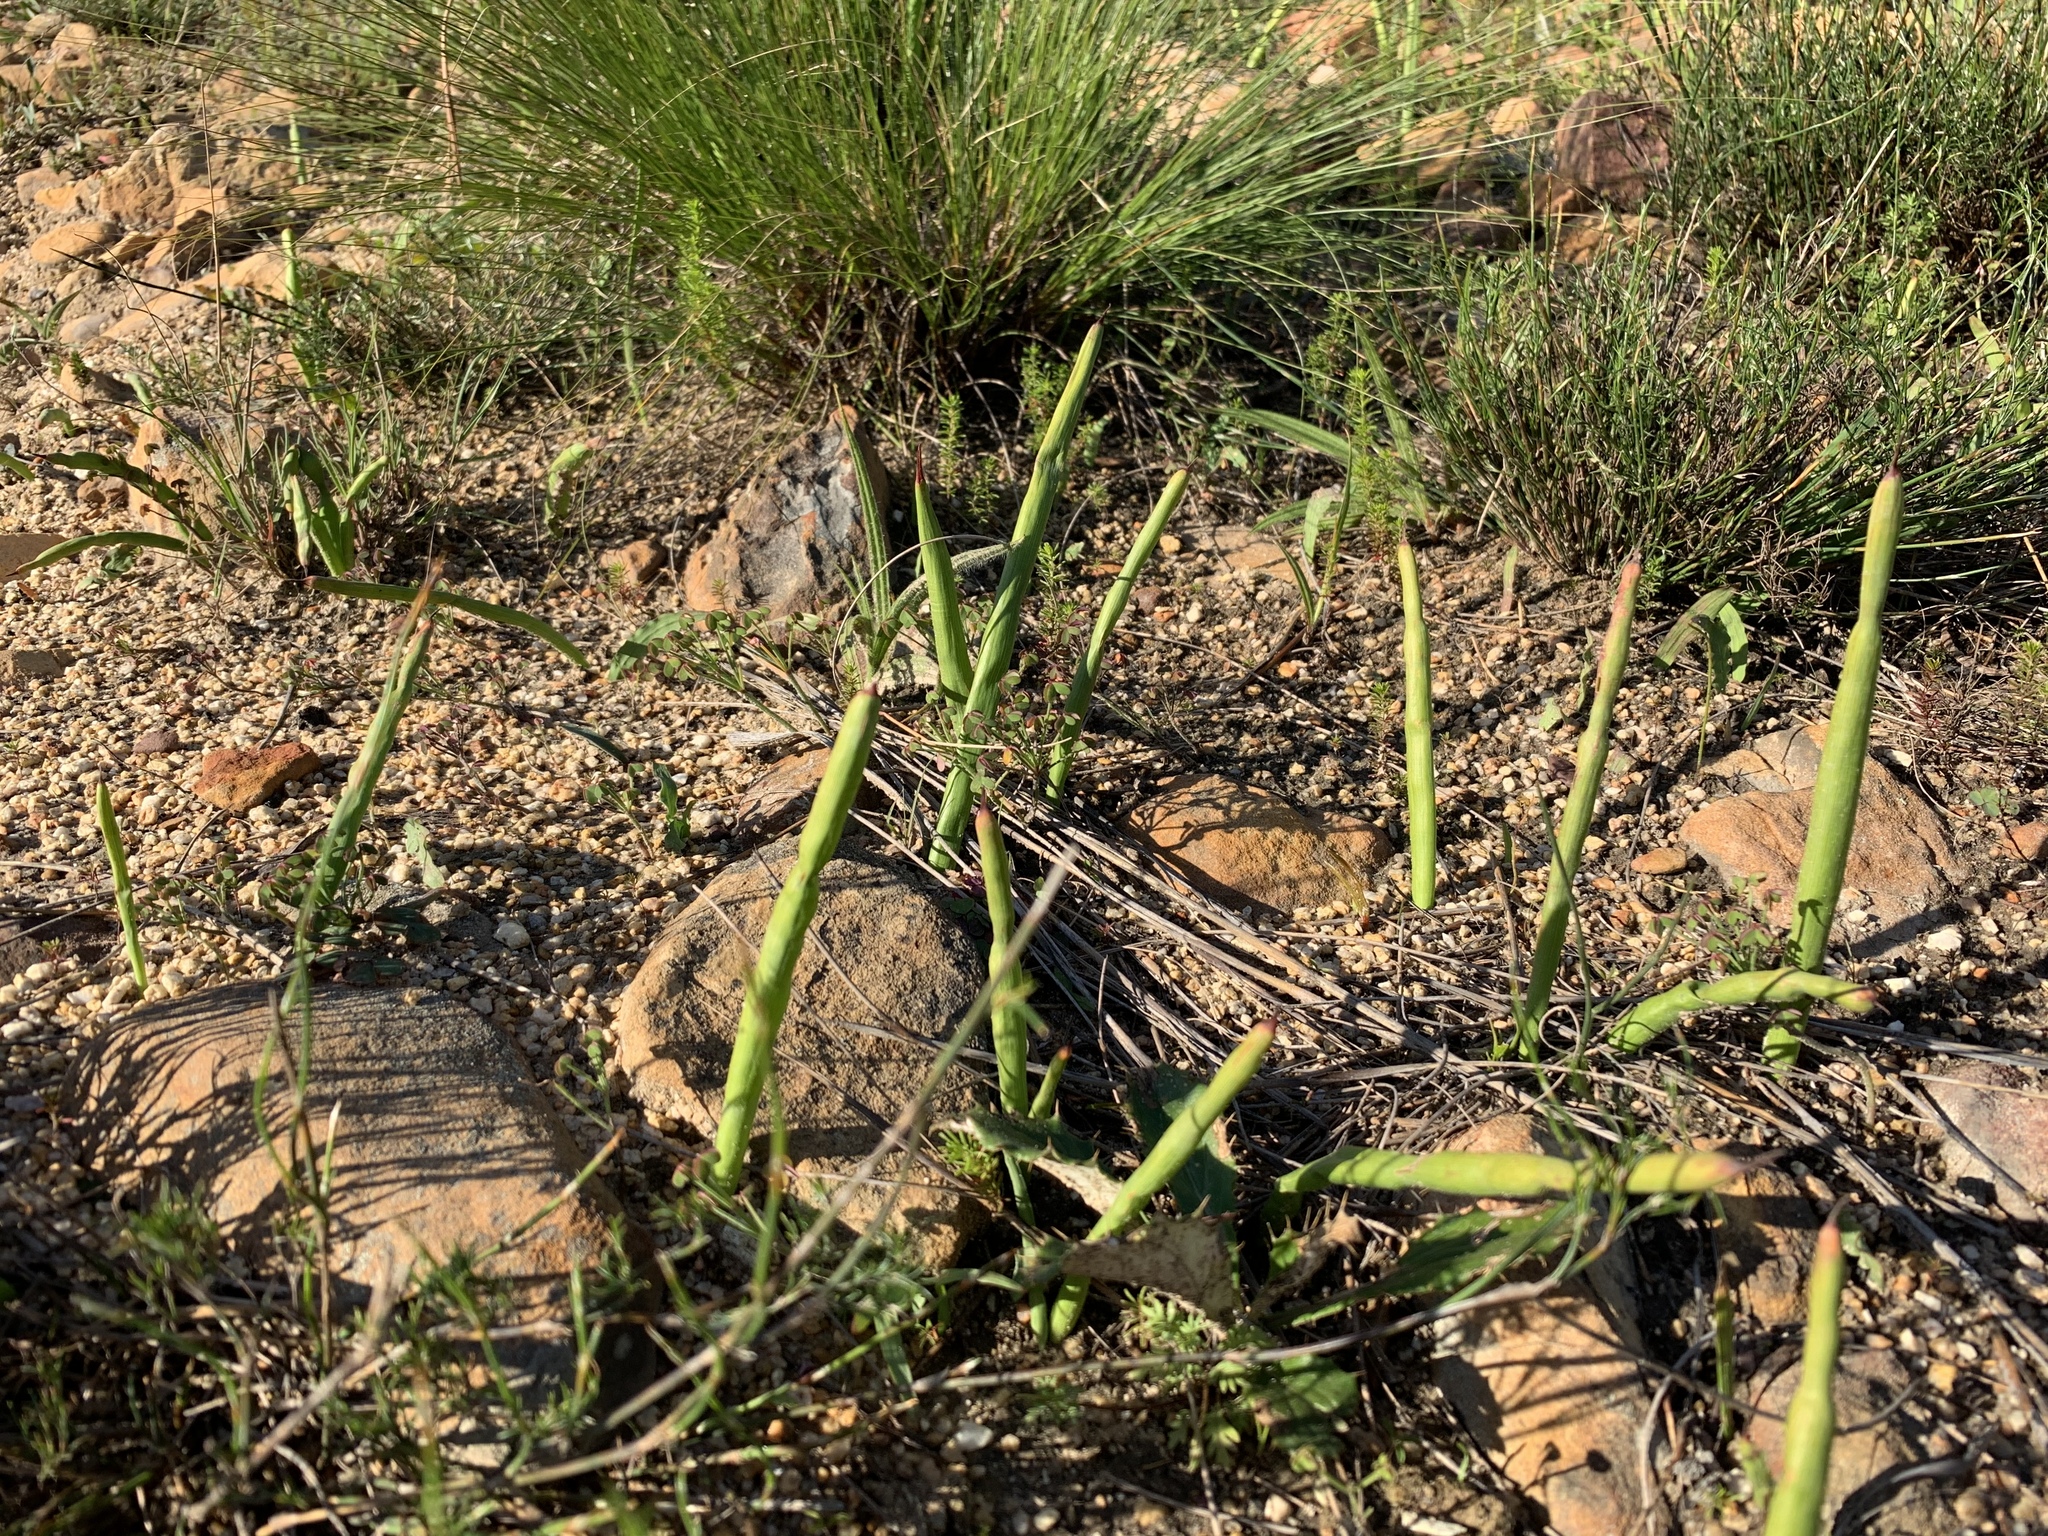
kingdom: Plantae
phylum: Tracheophyta
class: Liliopsida
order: Asparagales
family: Iridaceae
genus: Micranthus
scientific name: Micranthus tubulosus
